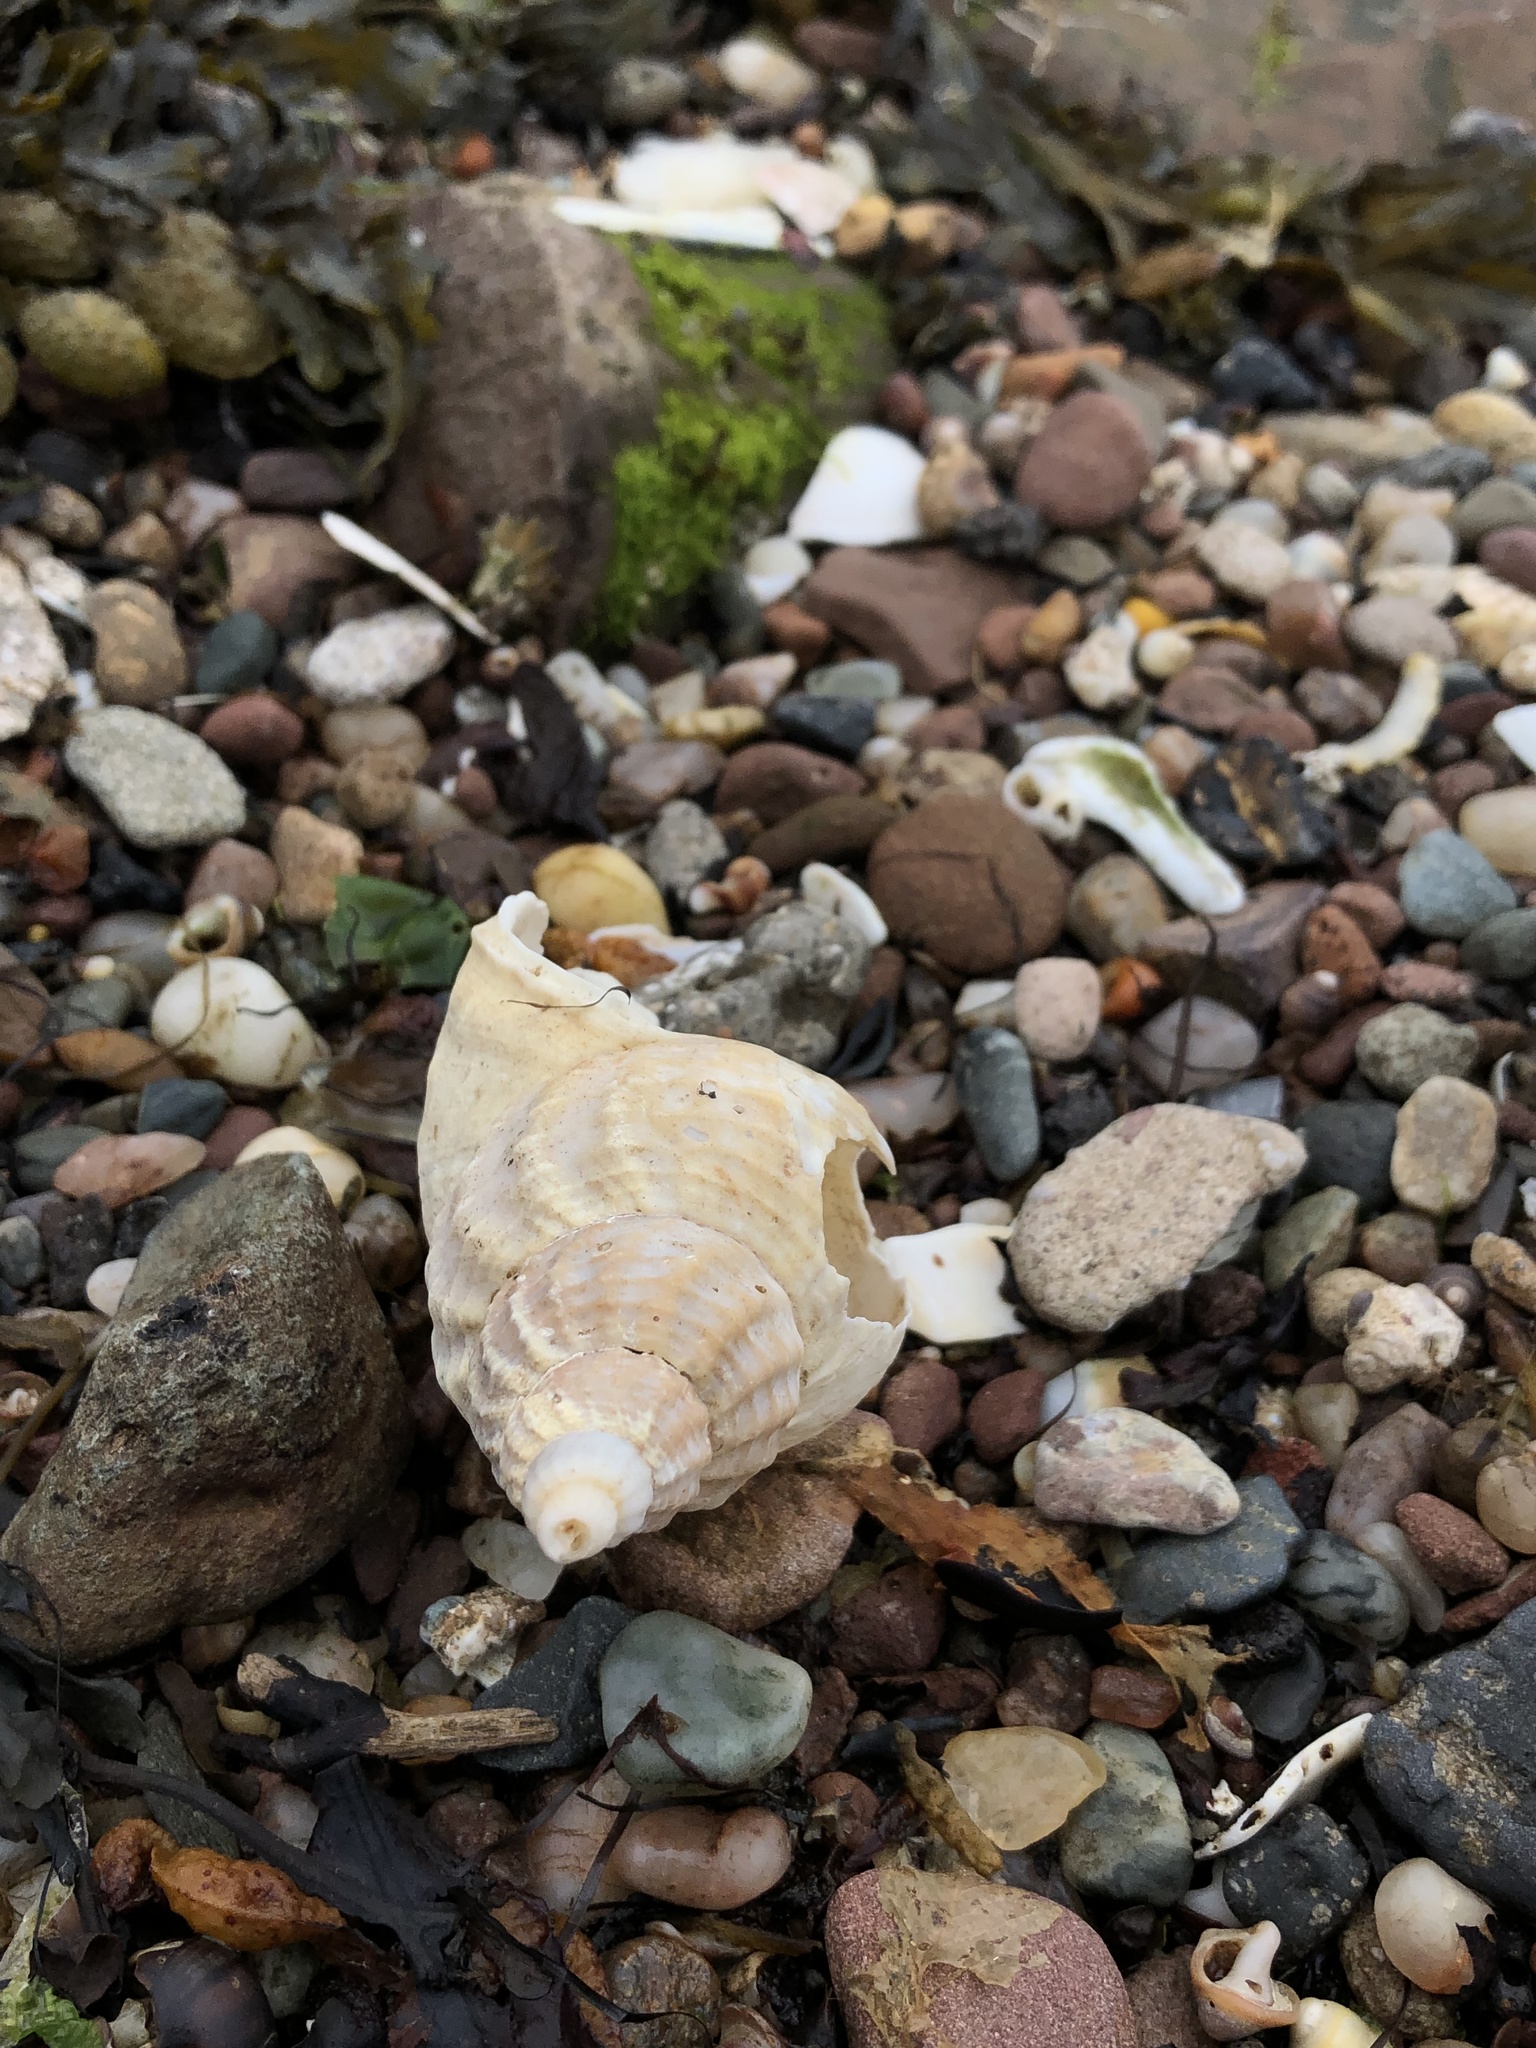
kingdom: Animalia
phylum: Mollusca
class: Gastropoda
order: Neogastropoda
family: Buccinidae
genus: Buccinum
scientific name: Buccinum undatum
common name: Common whelk
